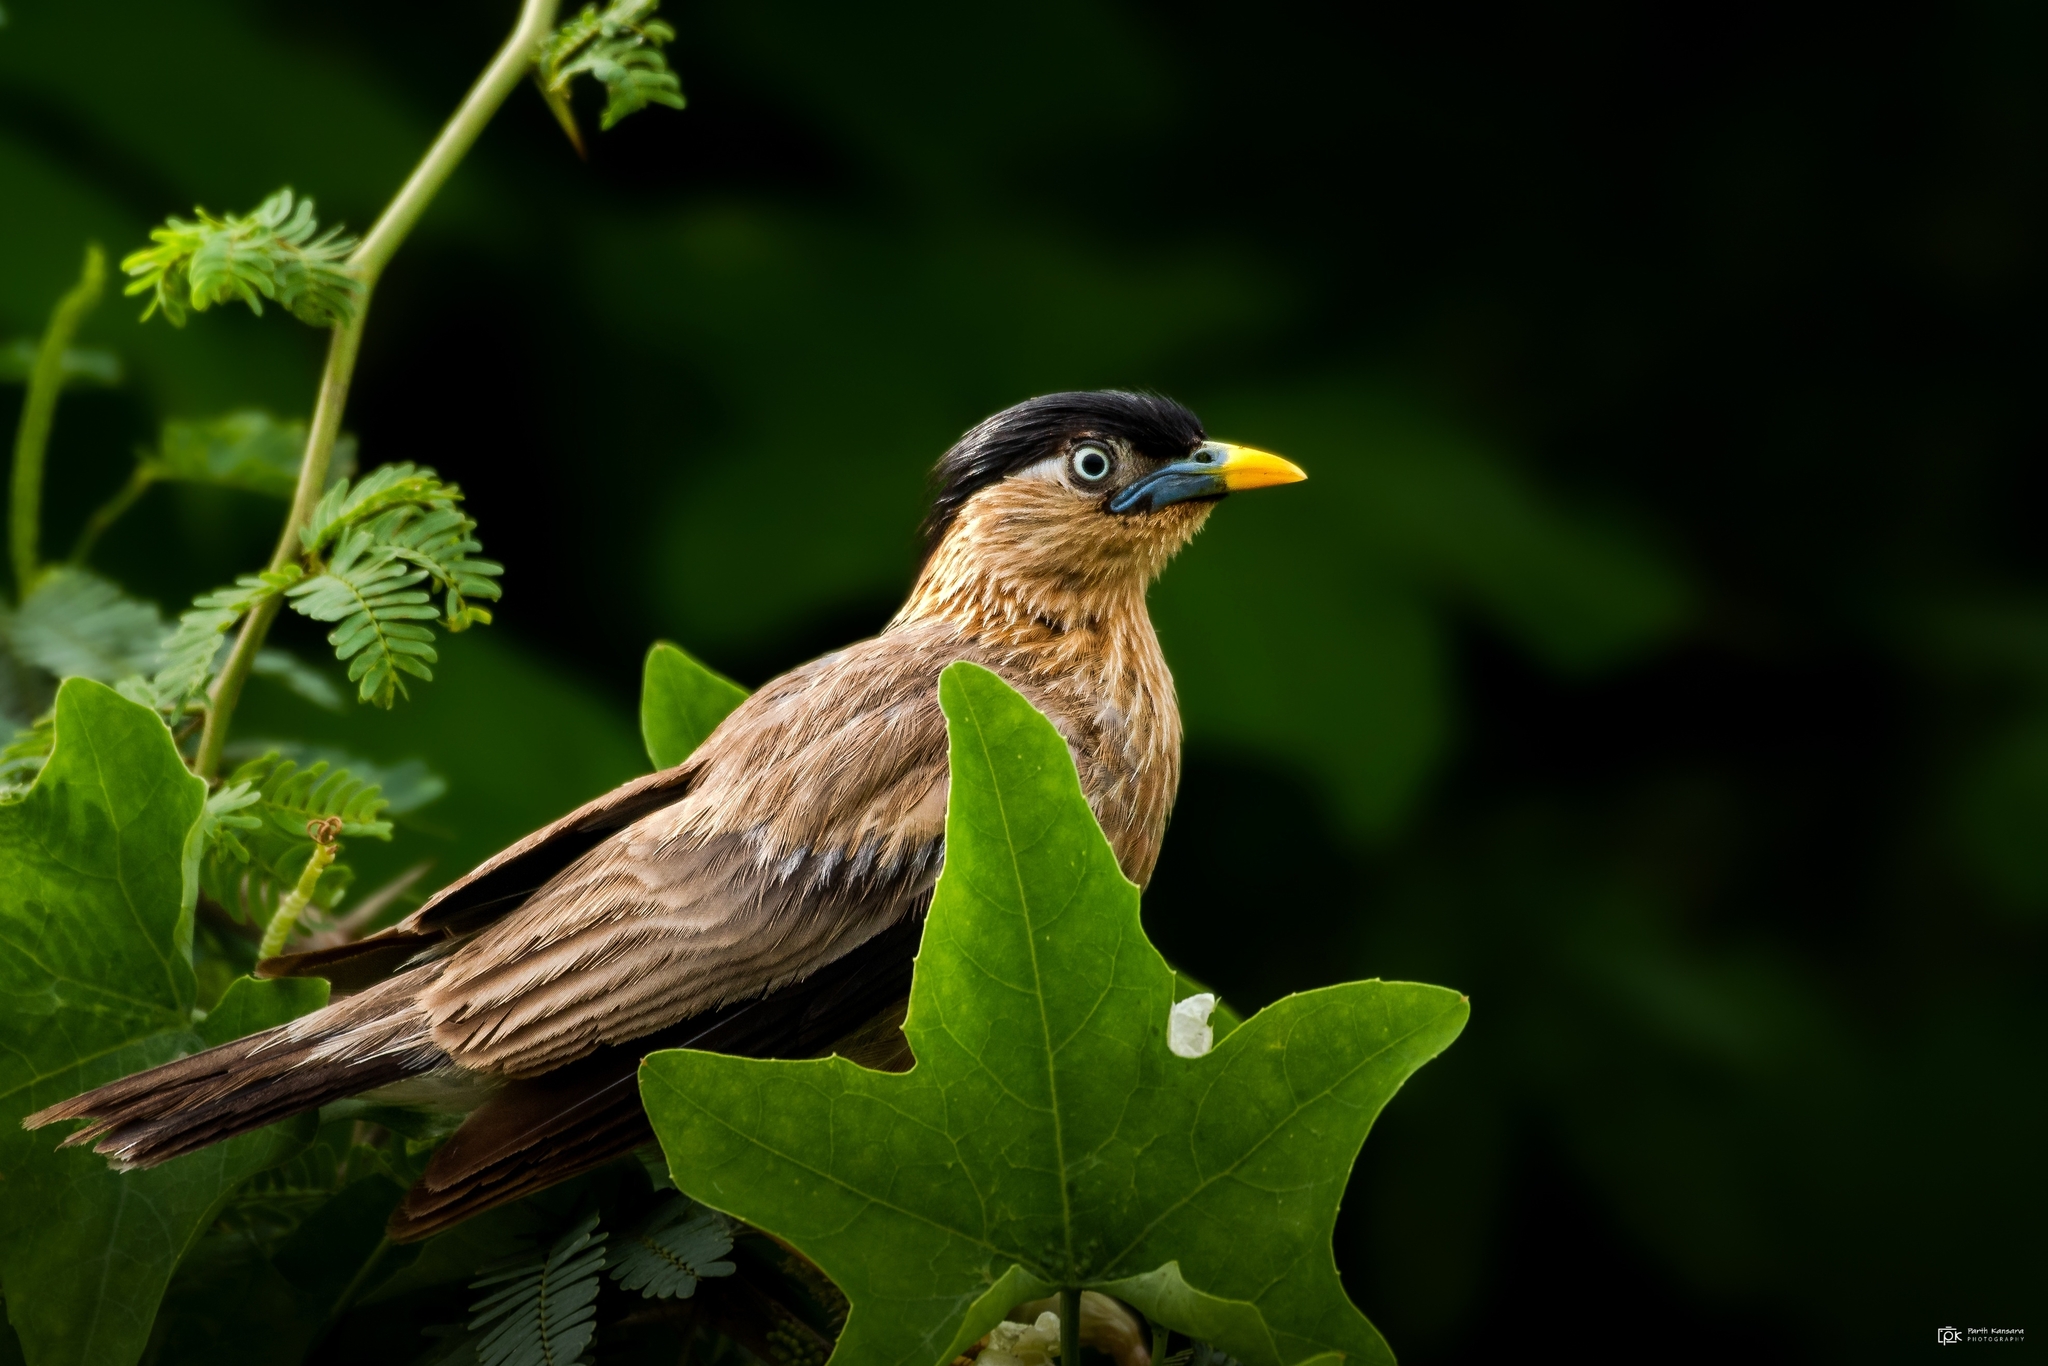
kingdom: Animalia
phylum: Chordata
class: Aves
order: Passeriformes
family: Sturnidae
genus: Sturnia
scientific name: Sturnia pagodarum
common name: Brahminy starling
